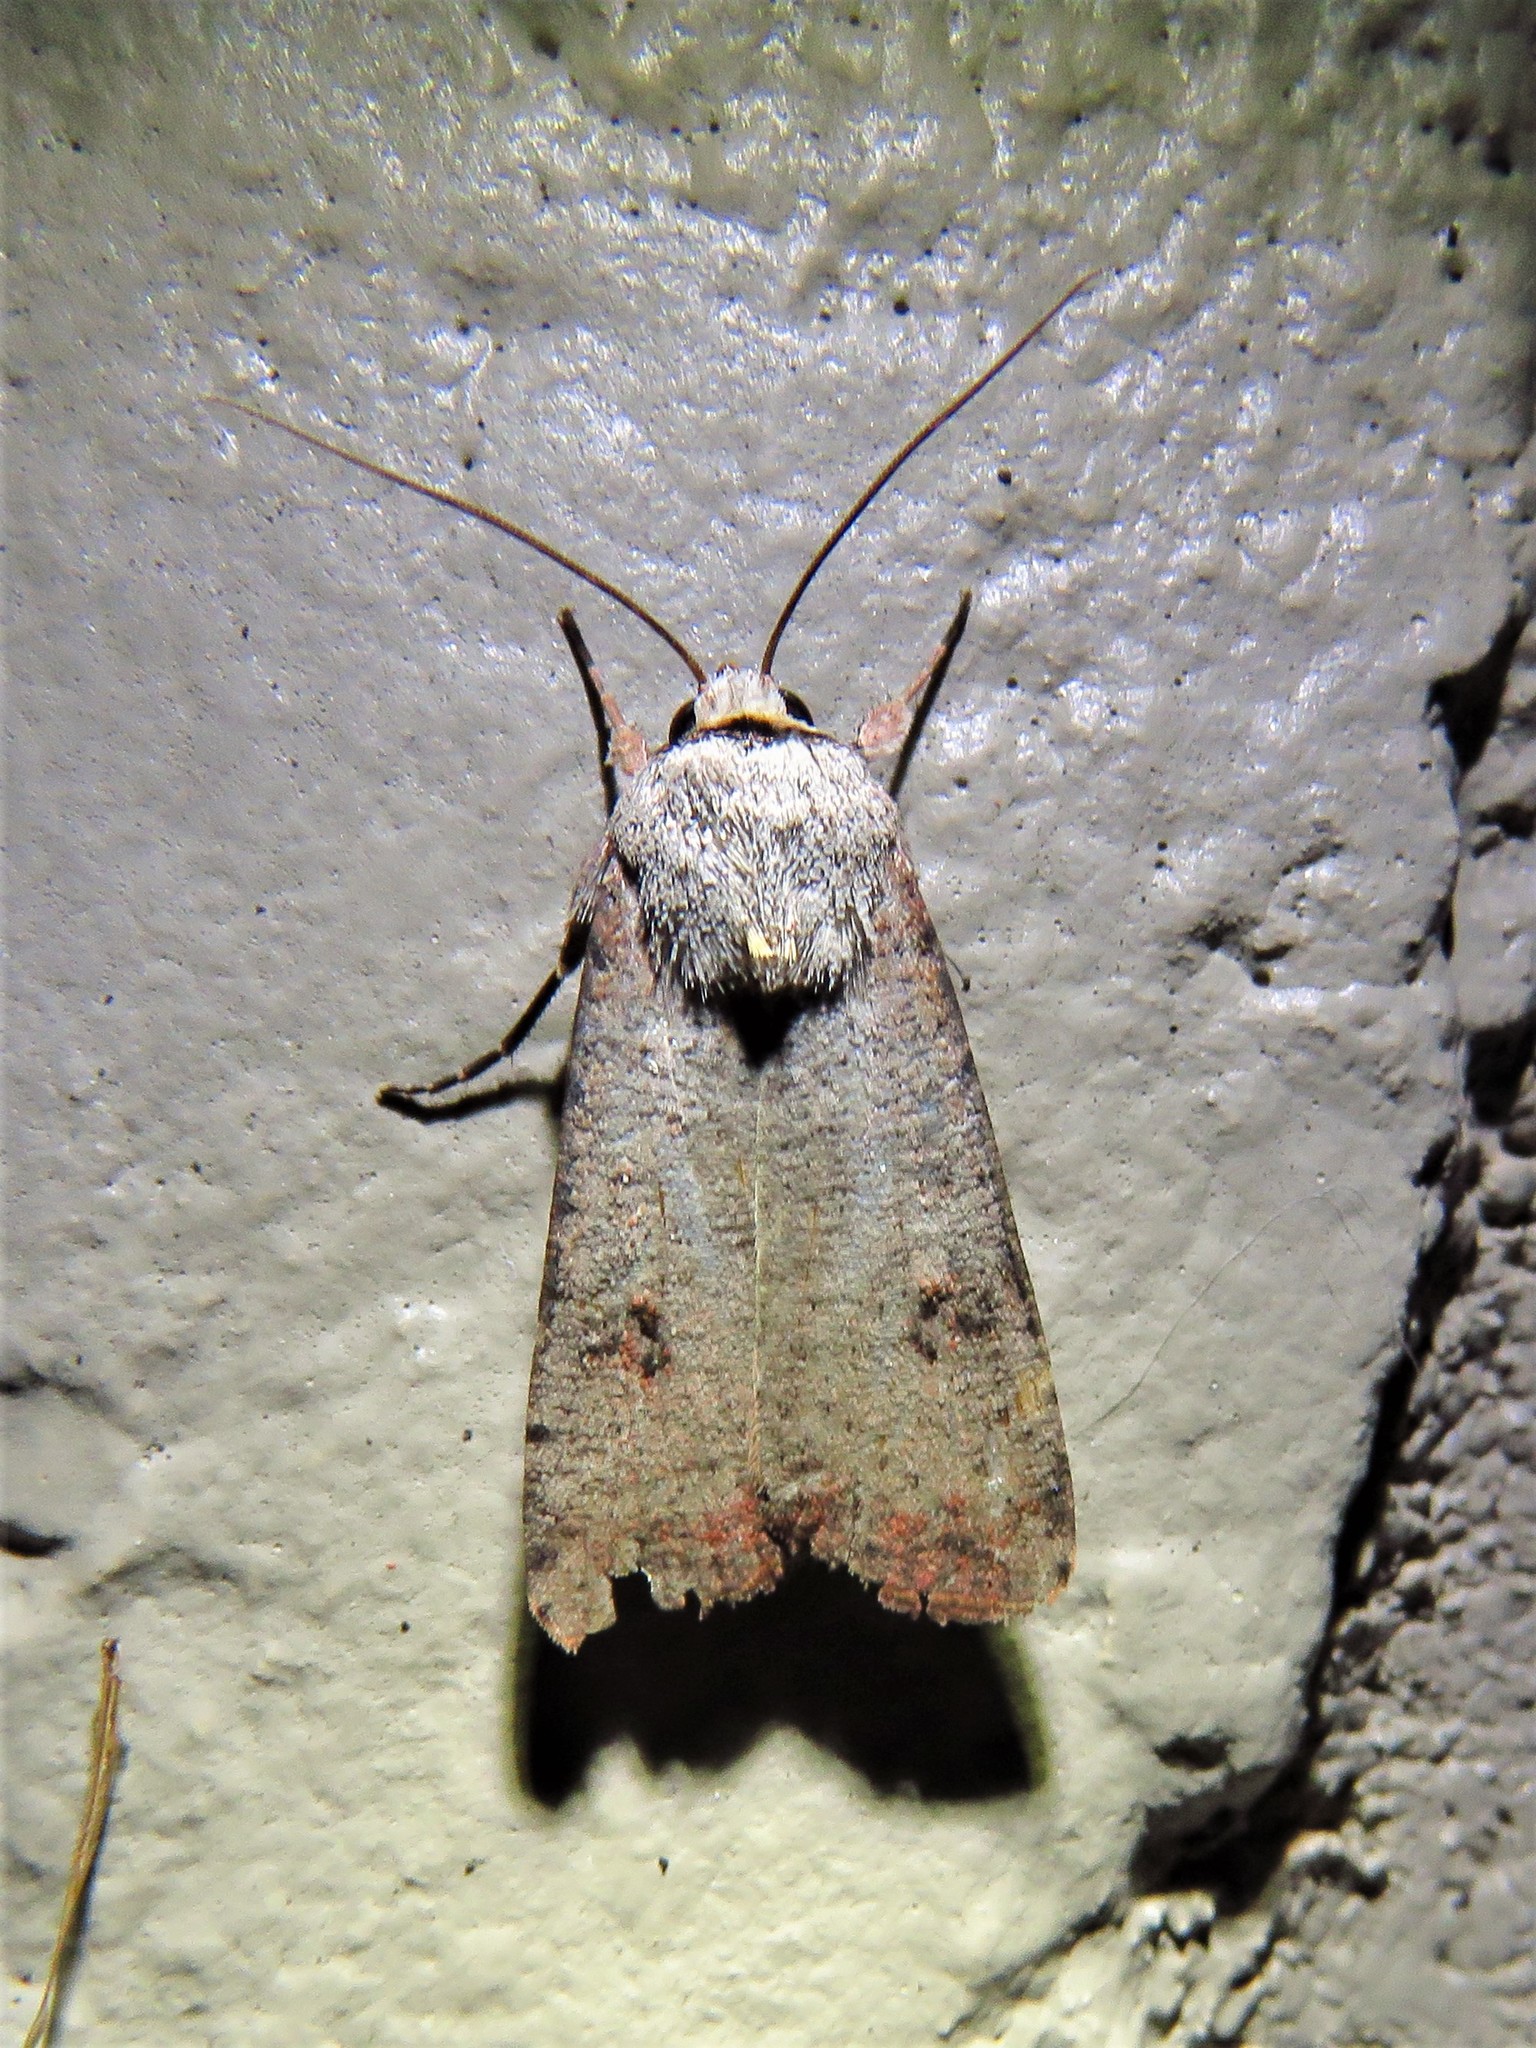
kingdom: Animalia
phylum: Arthropoda
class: Insecta
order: Lepidoptera
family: Noctuidae
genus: Anicla
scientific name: Anicla infecta
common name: Green cutworm
